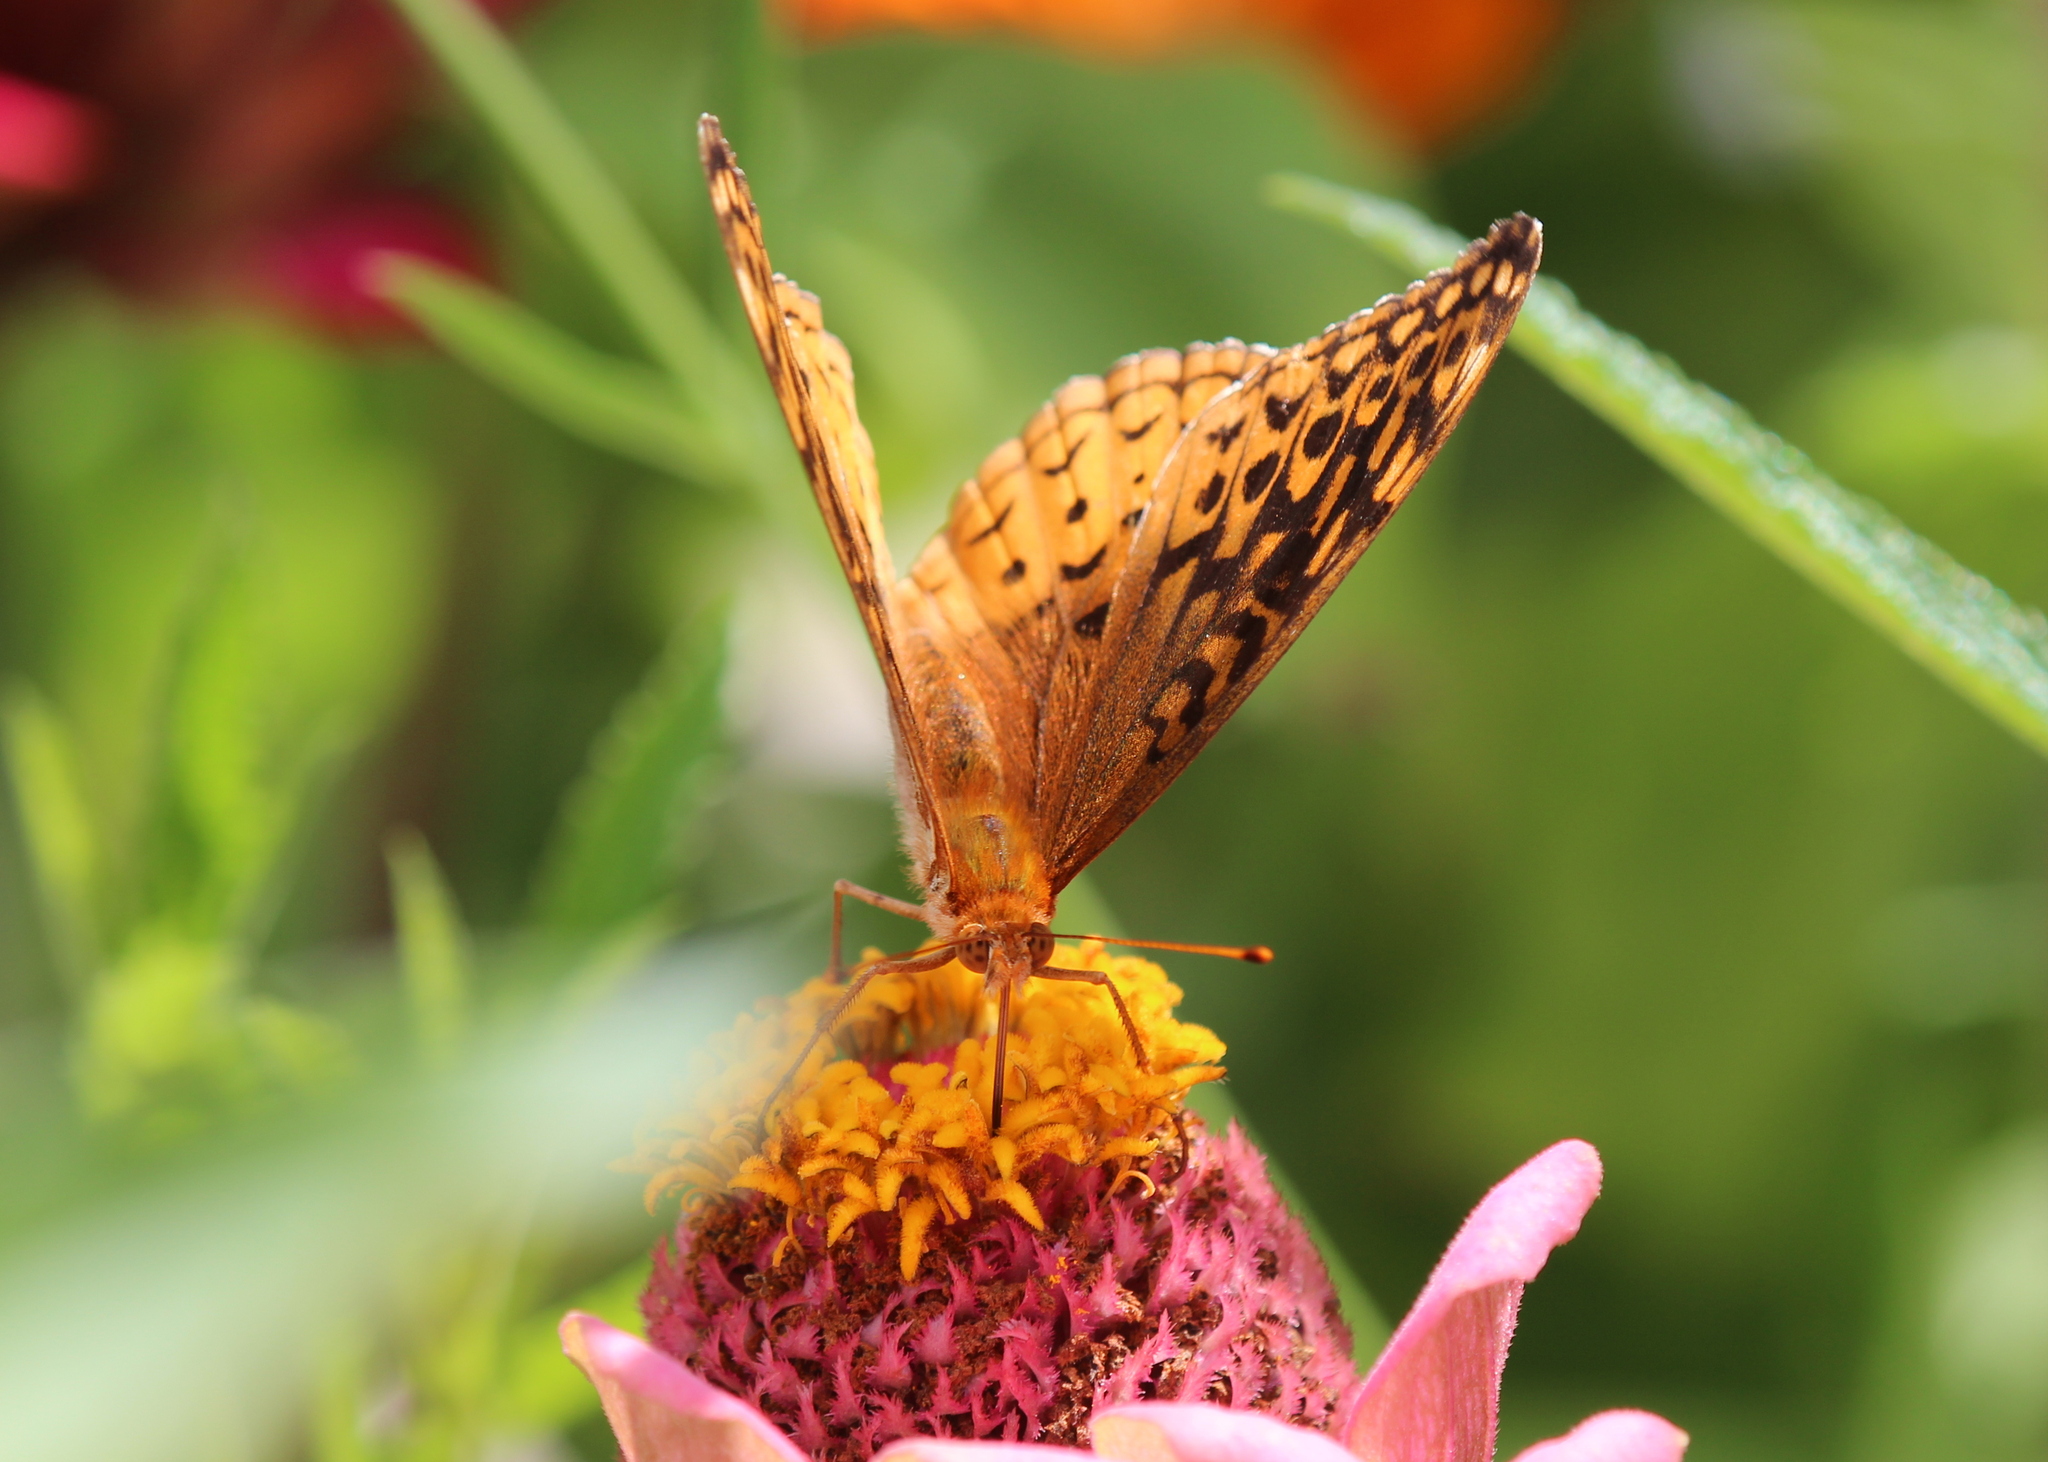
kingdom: Animalia
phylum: Arthropoda
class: Insecta
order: Lepidoptera
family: Nymphalidae
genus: Speyeria
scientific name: Speyeria cybele
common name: Great spangled fritillary
